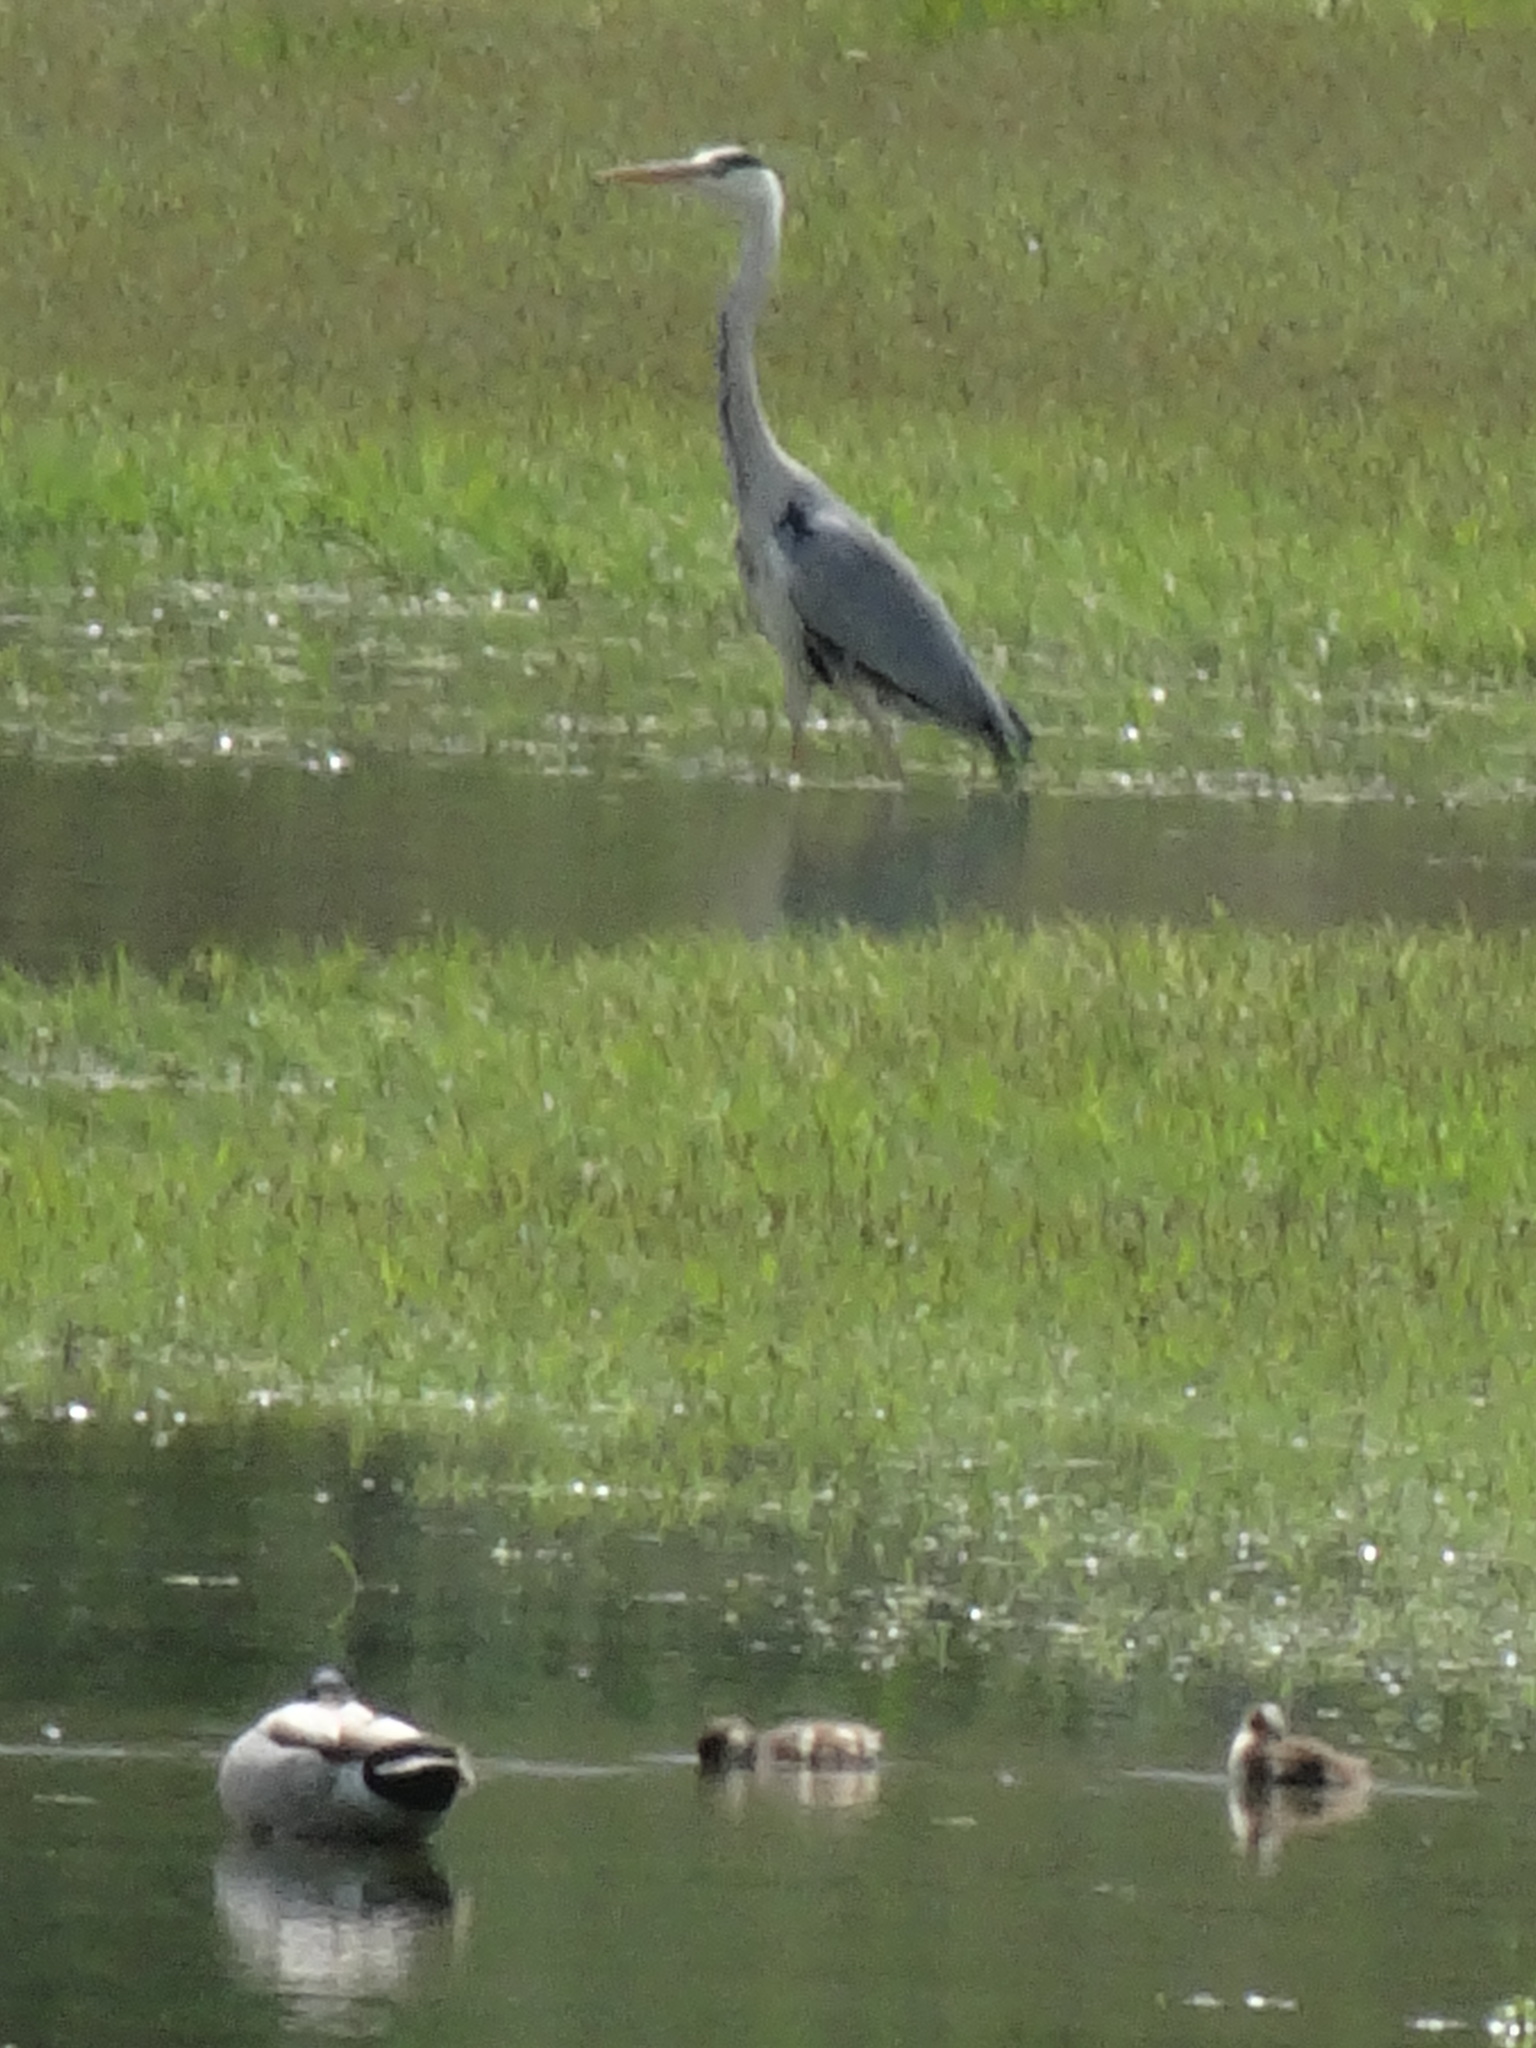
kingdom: Animalia
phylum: Chordata
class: Aves
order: Pelecaniformes
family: Ardeidae
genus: Ardea
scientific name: Ardea cinerea
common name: Grey heron
